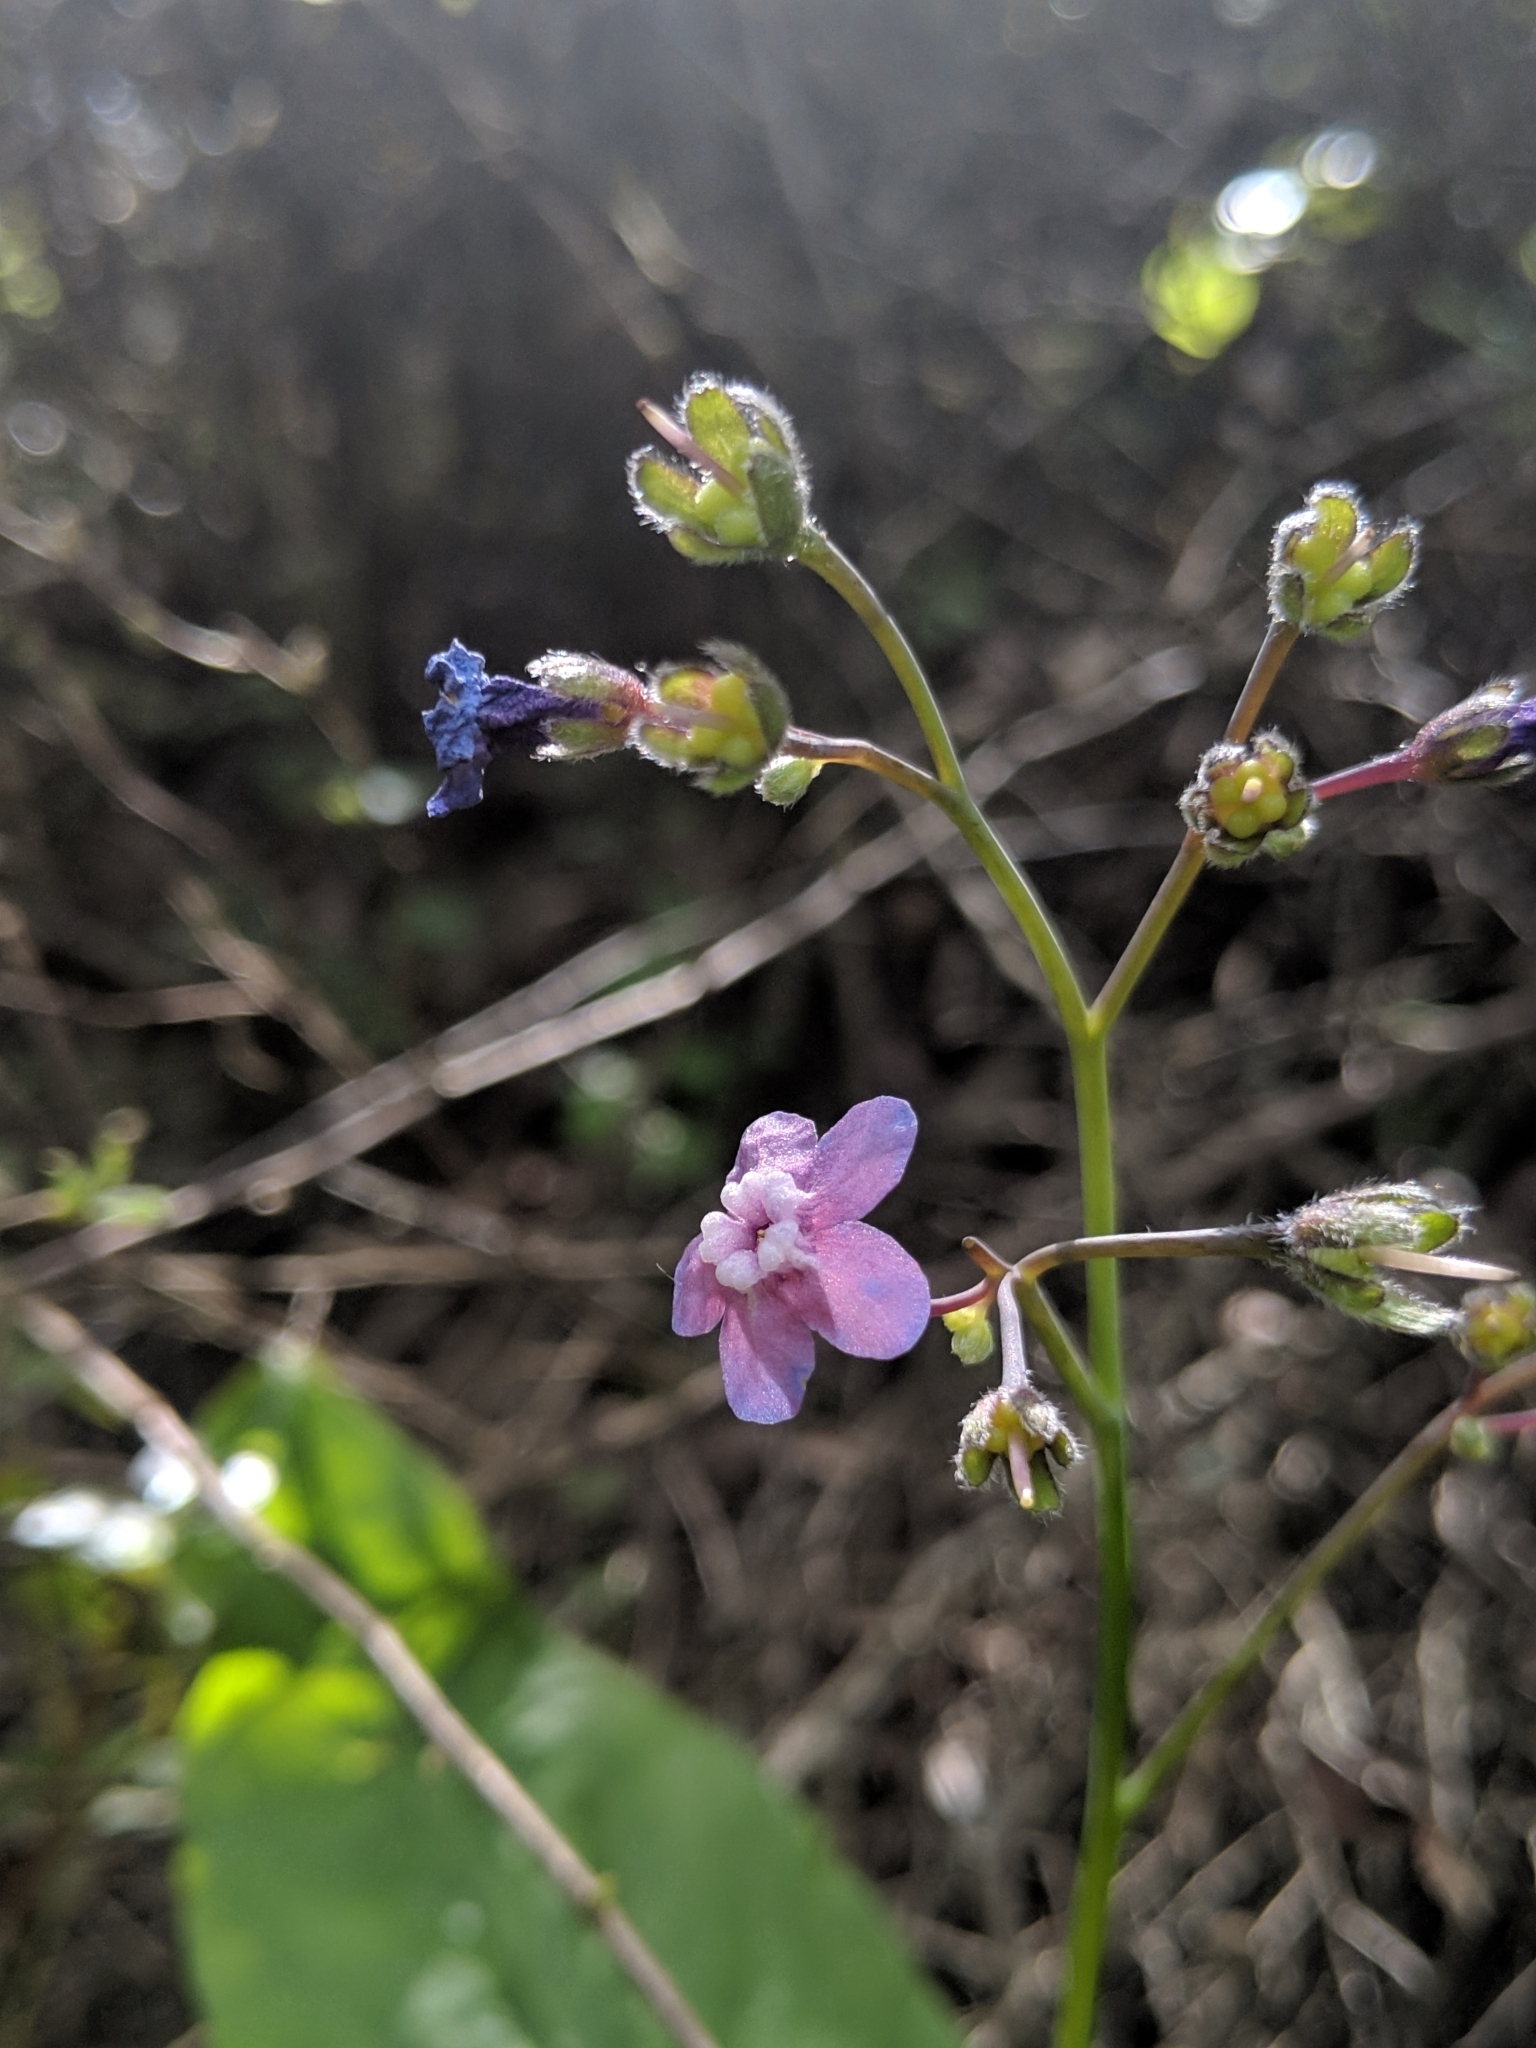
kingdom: Plantae
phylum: Tracheophyta
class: Magnoliopsida
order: Boraginales
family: Boraginaceae
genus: Adelinia
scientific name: Adelinia grande
